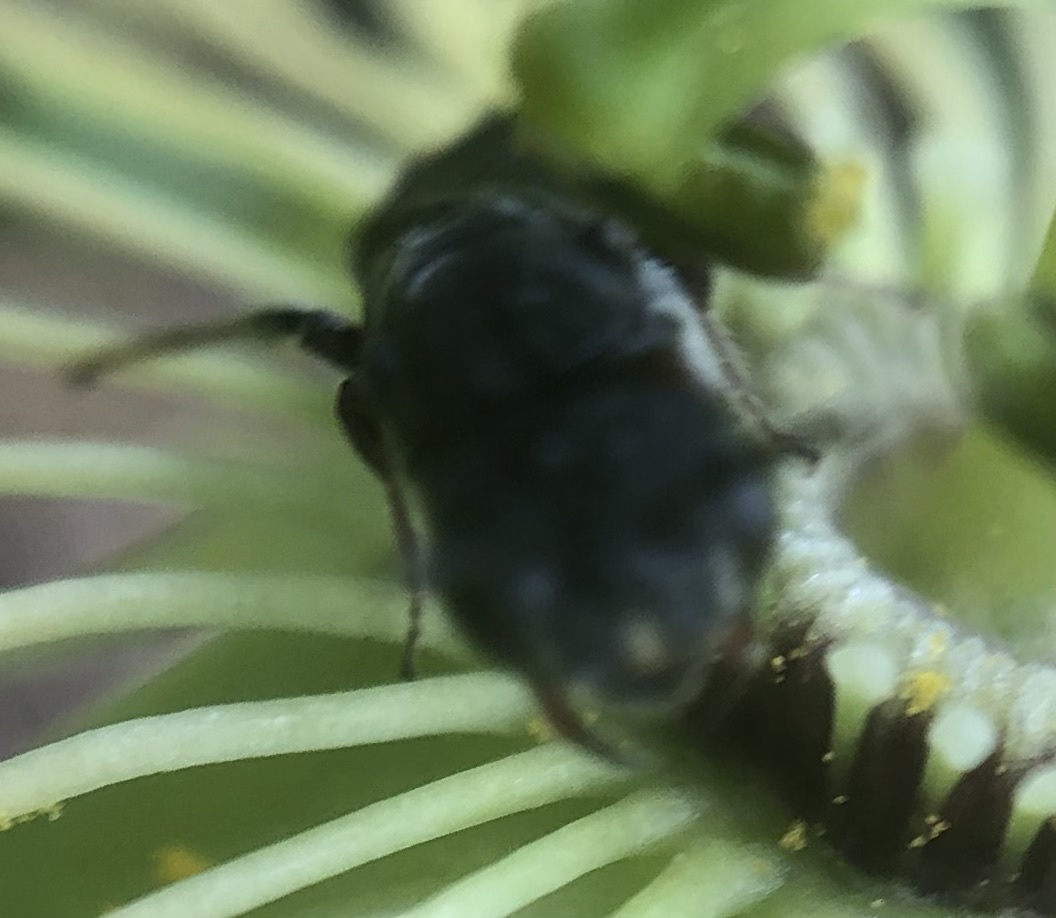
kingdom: Animalia
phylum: Arthropoda
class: Insecta
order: Hymenoptera
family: Andrenidae
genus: Protandrena
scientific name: Protandrena
